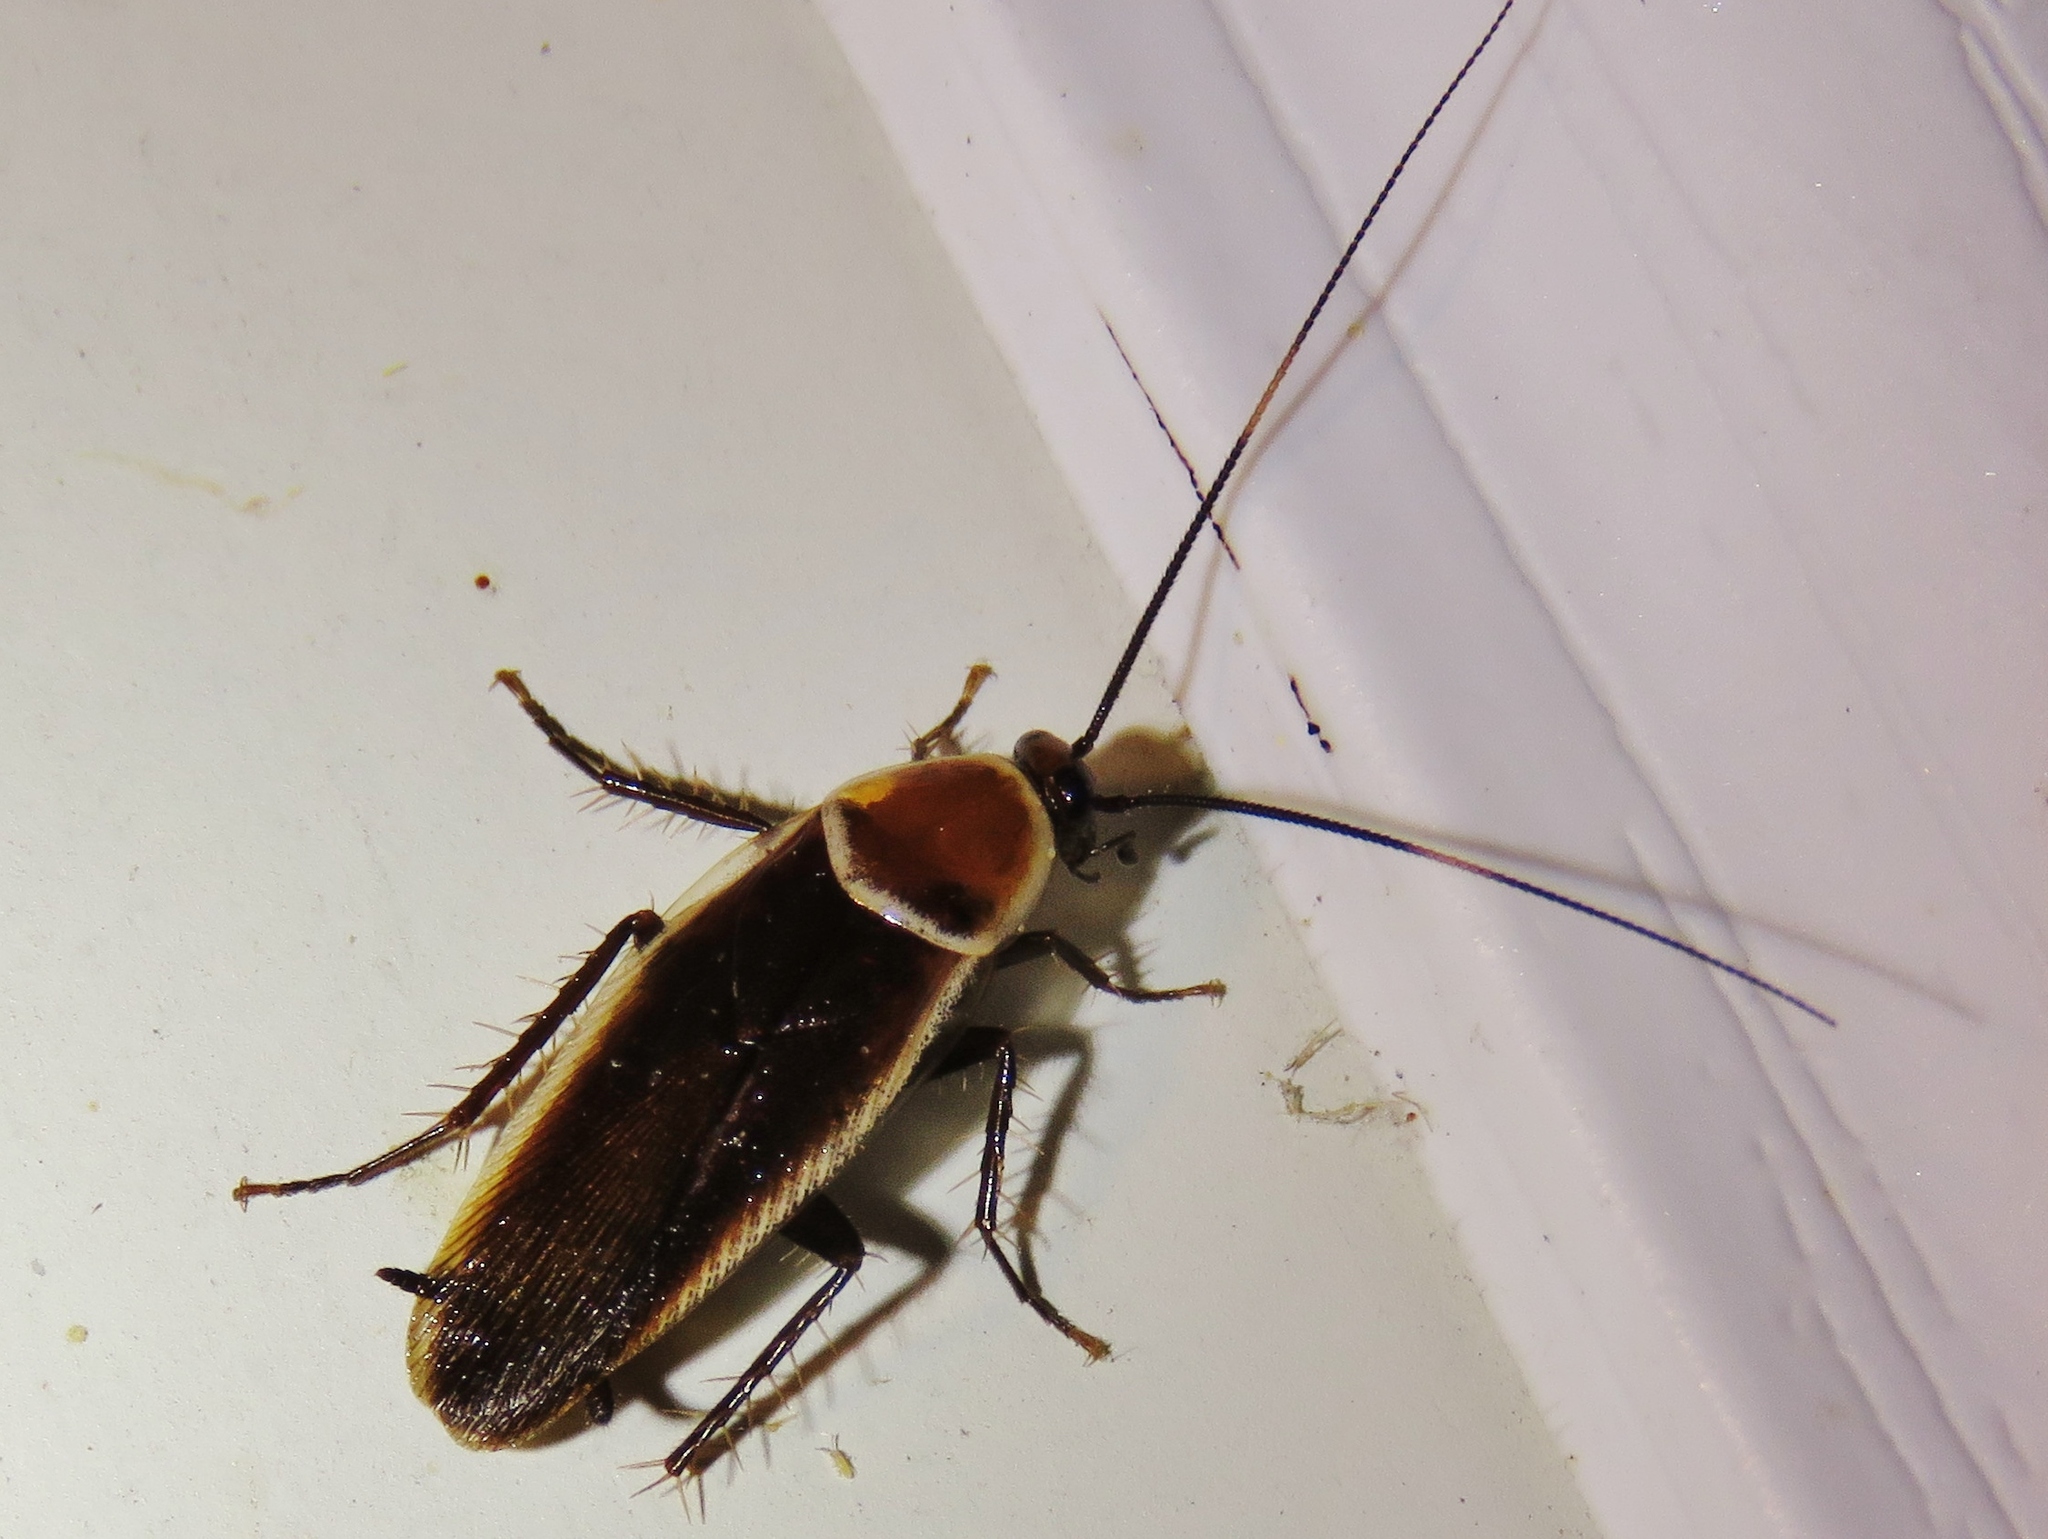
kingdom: Animalia
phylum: Arthropoda
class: Insecta
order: Blattodea
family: Ectobiidae
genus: Pseudomops
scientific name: Pseudomops septentrionalis
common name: Pale-bordered field cockroach
